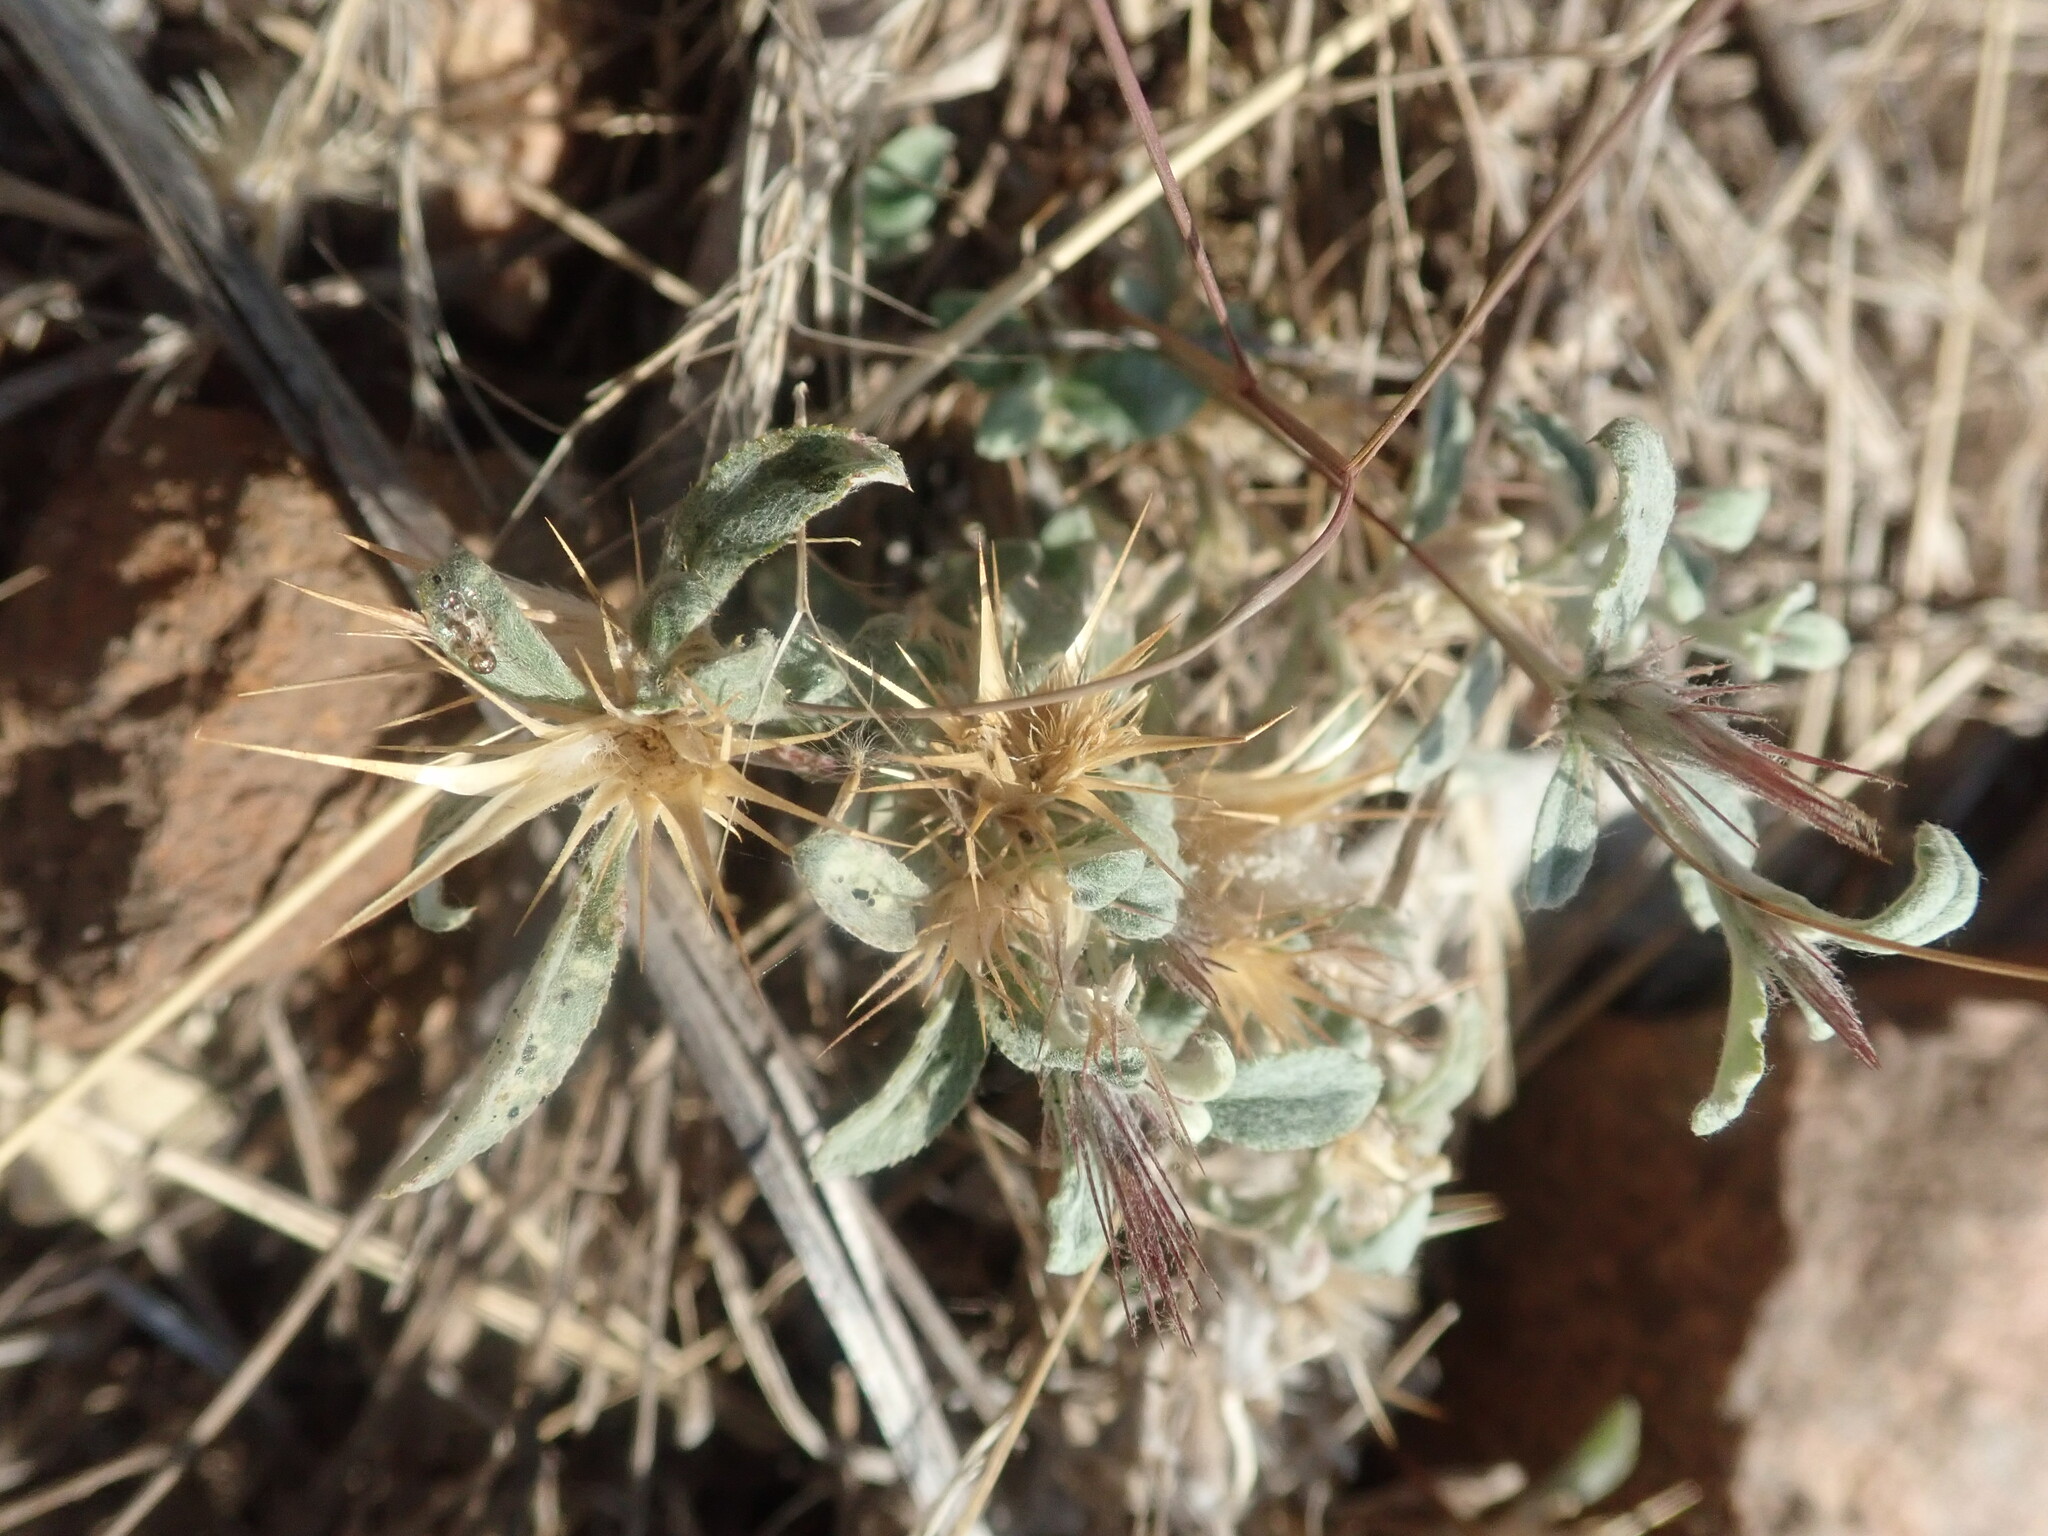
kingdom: Plantae
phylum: Tracheophyta
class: Magnoliopsida
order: Asterales
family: Asteraceae
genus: Dicoma
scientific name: Dicoma tomentosa
